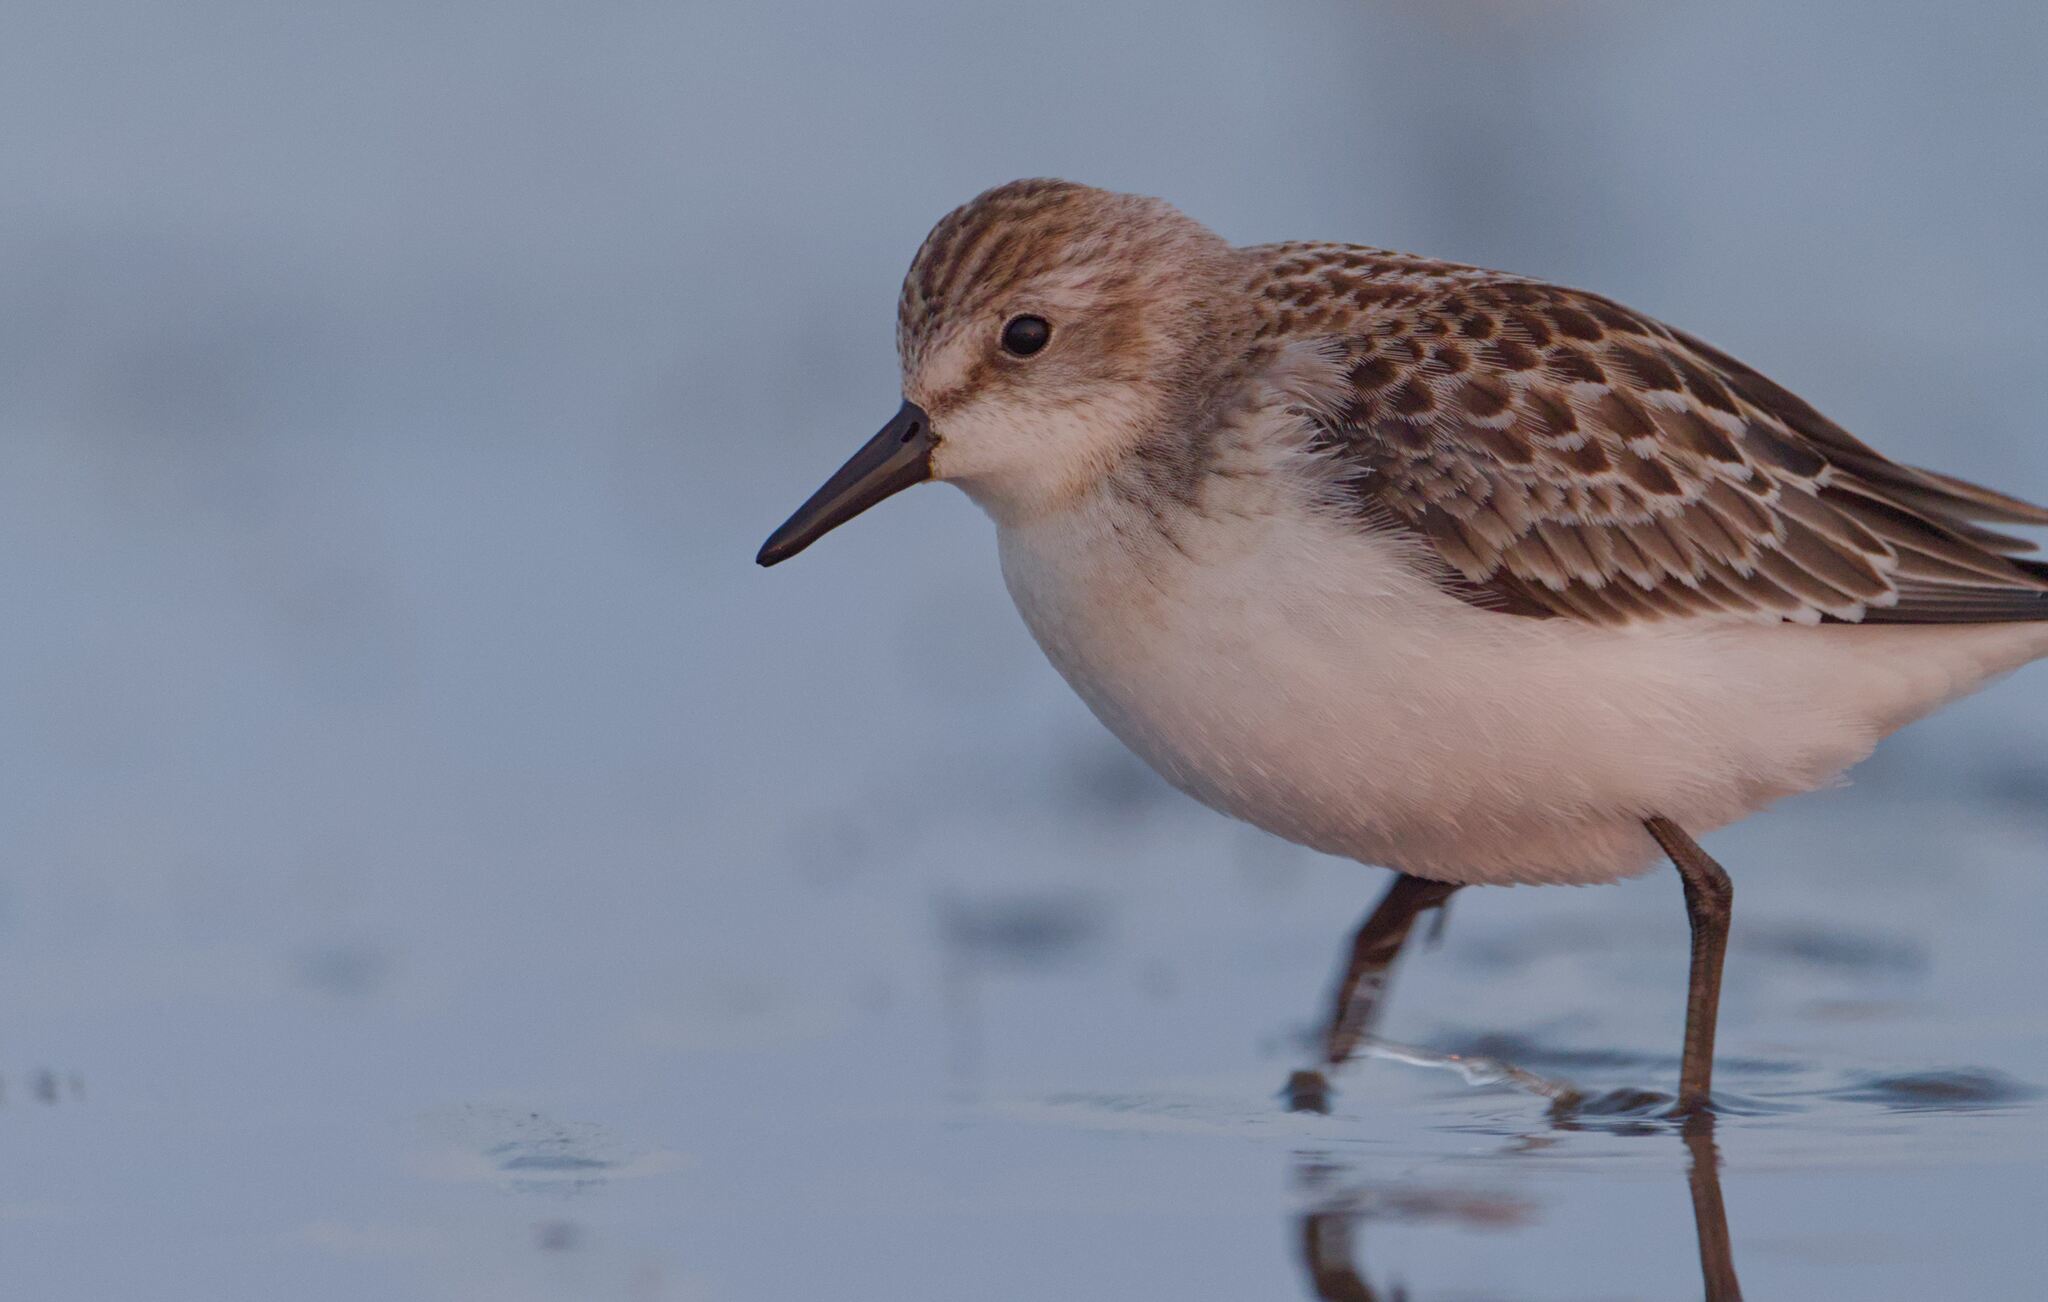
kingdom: Animalia
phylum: Chordata
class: Aves
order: Charadriiformes
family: Scolopacidae
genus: Calidris
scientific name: Calidris pusilla
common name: Semipalmated sandpiper
